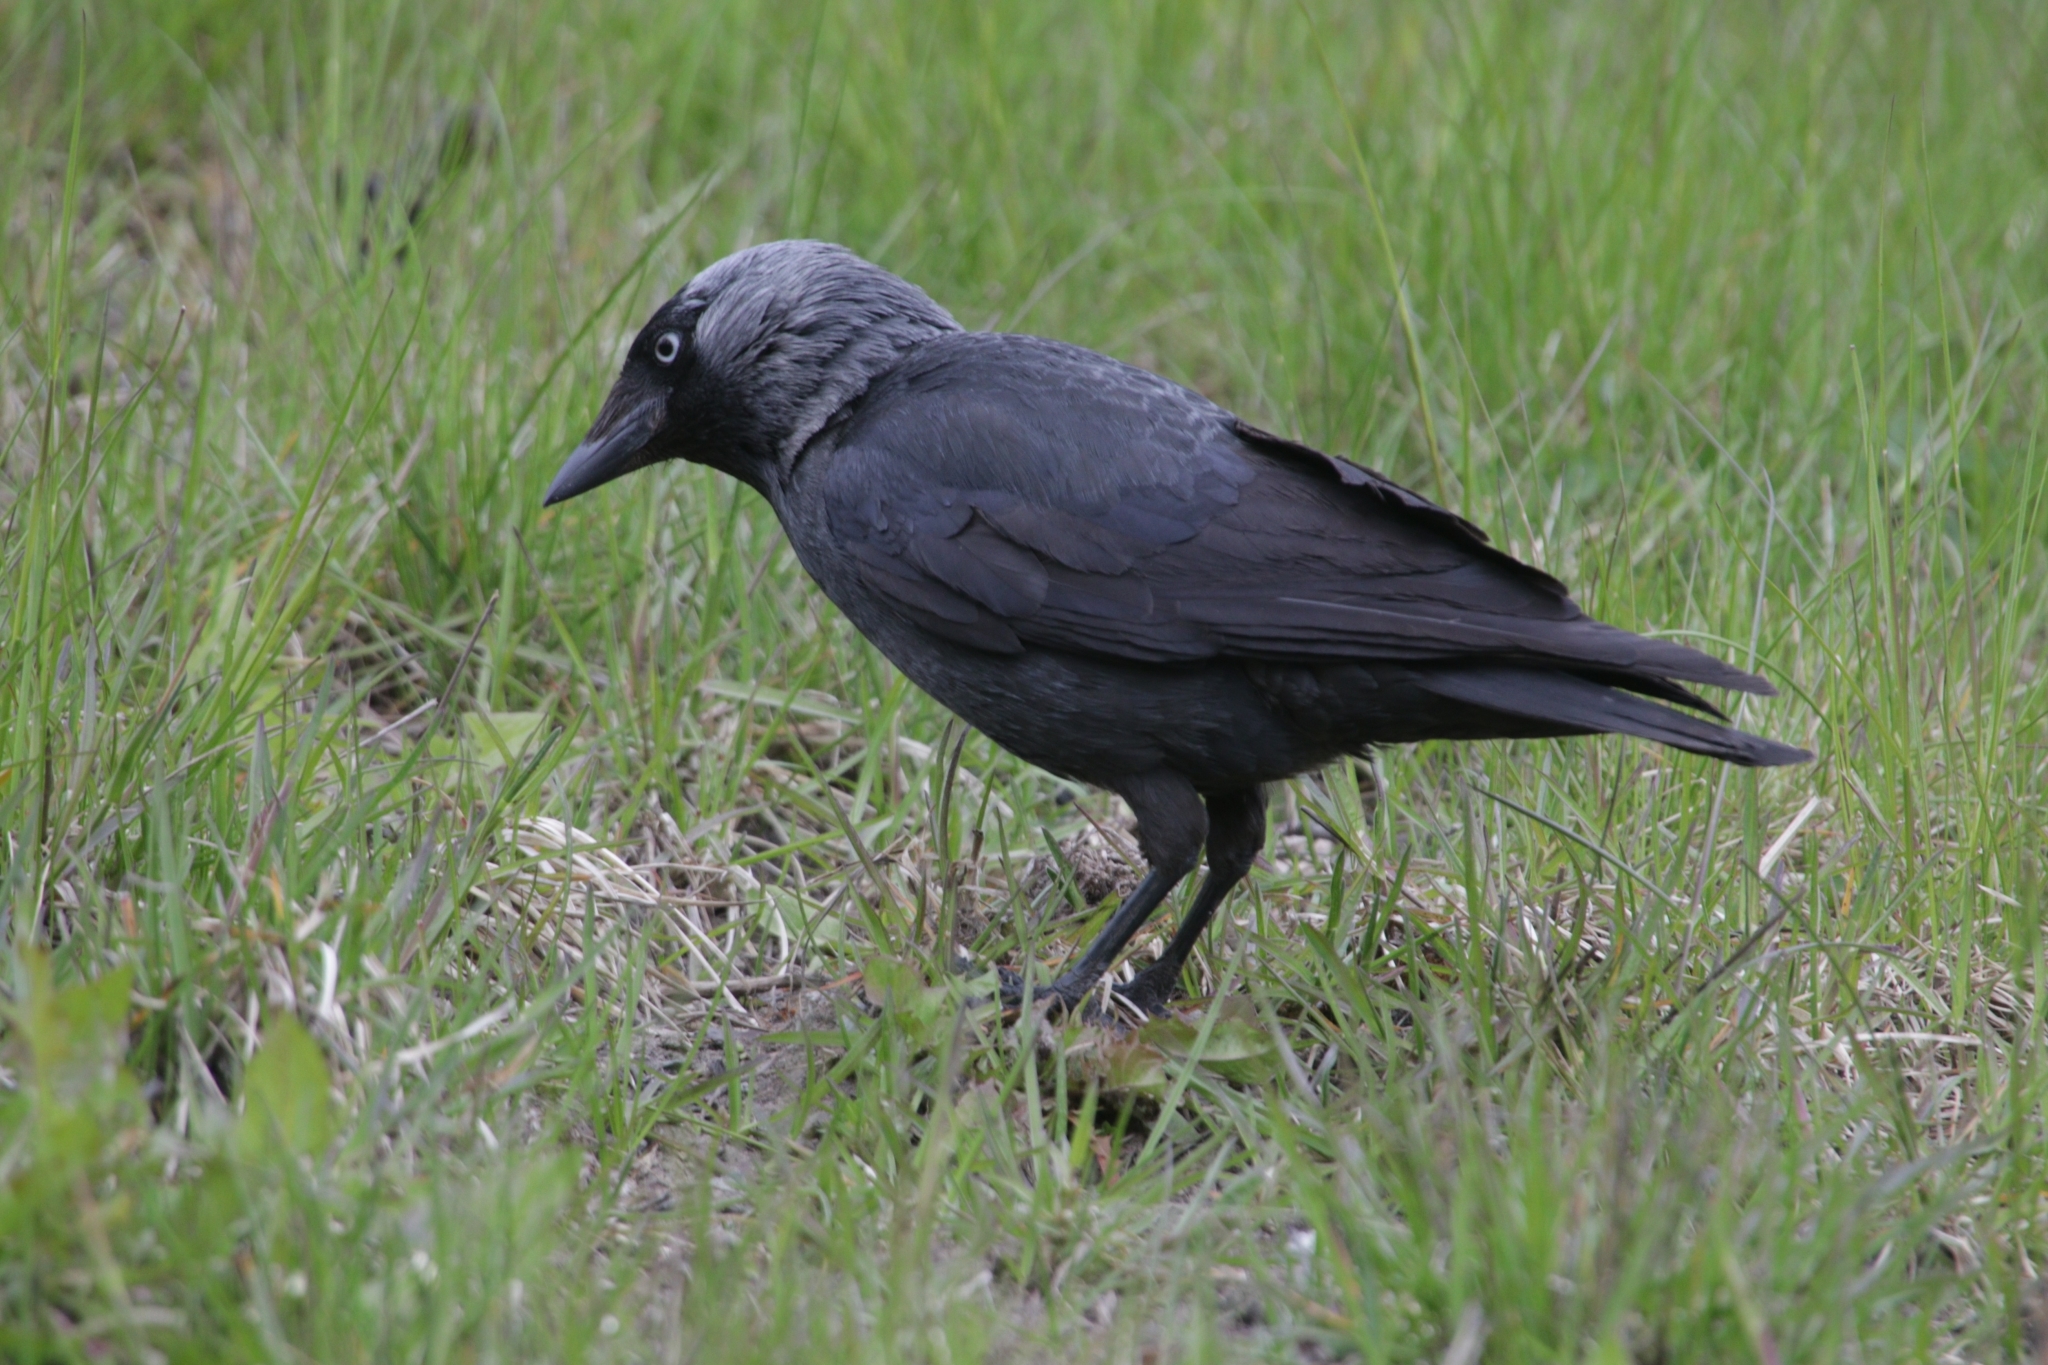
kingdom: Animalia
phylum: Chordata
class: Aves
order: Passeriformes
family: Corvidae
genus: Coloeus
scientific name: Coloeus monedula
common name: Western jackdaw
